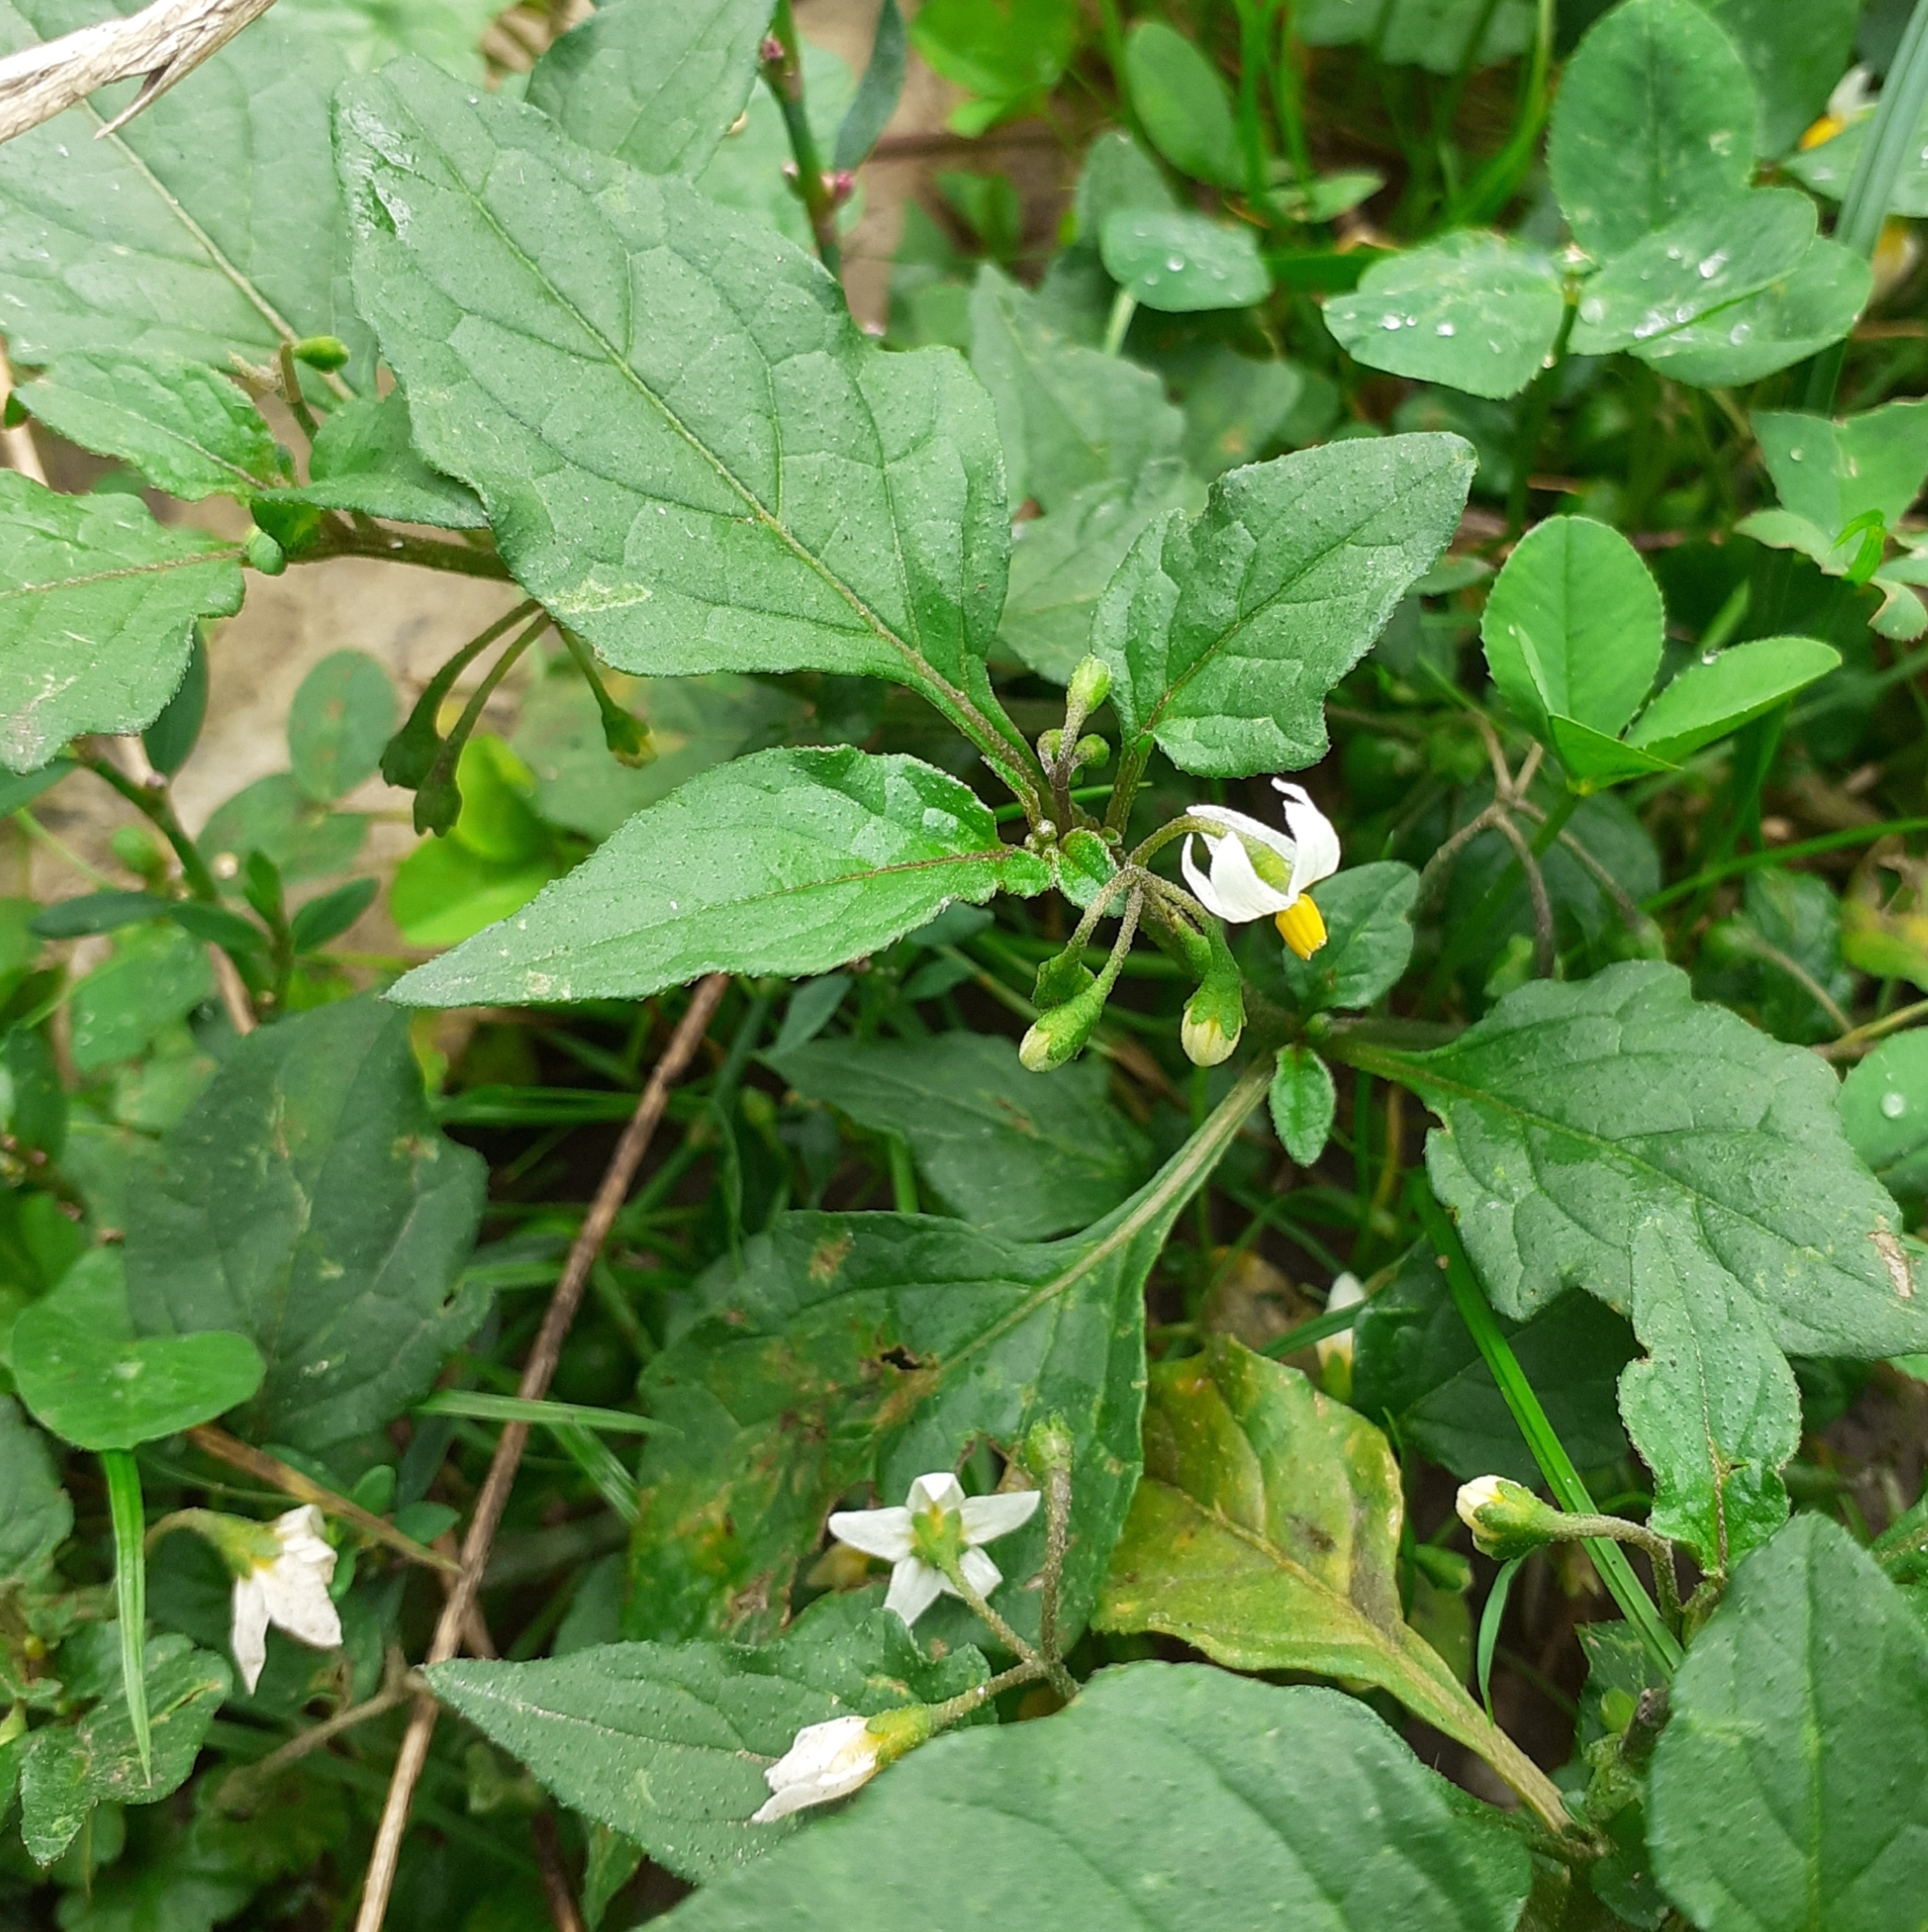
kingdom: Plantae
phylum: Tracheophyta
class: Magnoliopsida
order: Solanales
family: Solanaceae
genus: Solanum
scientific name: Solanum nigrum
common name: Black nightshade
